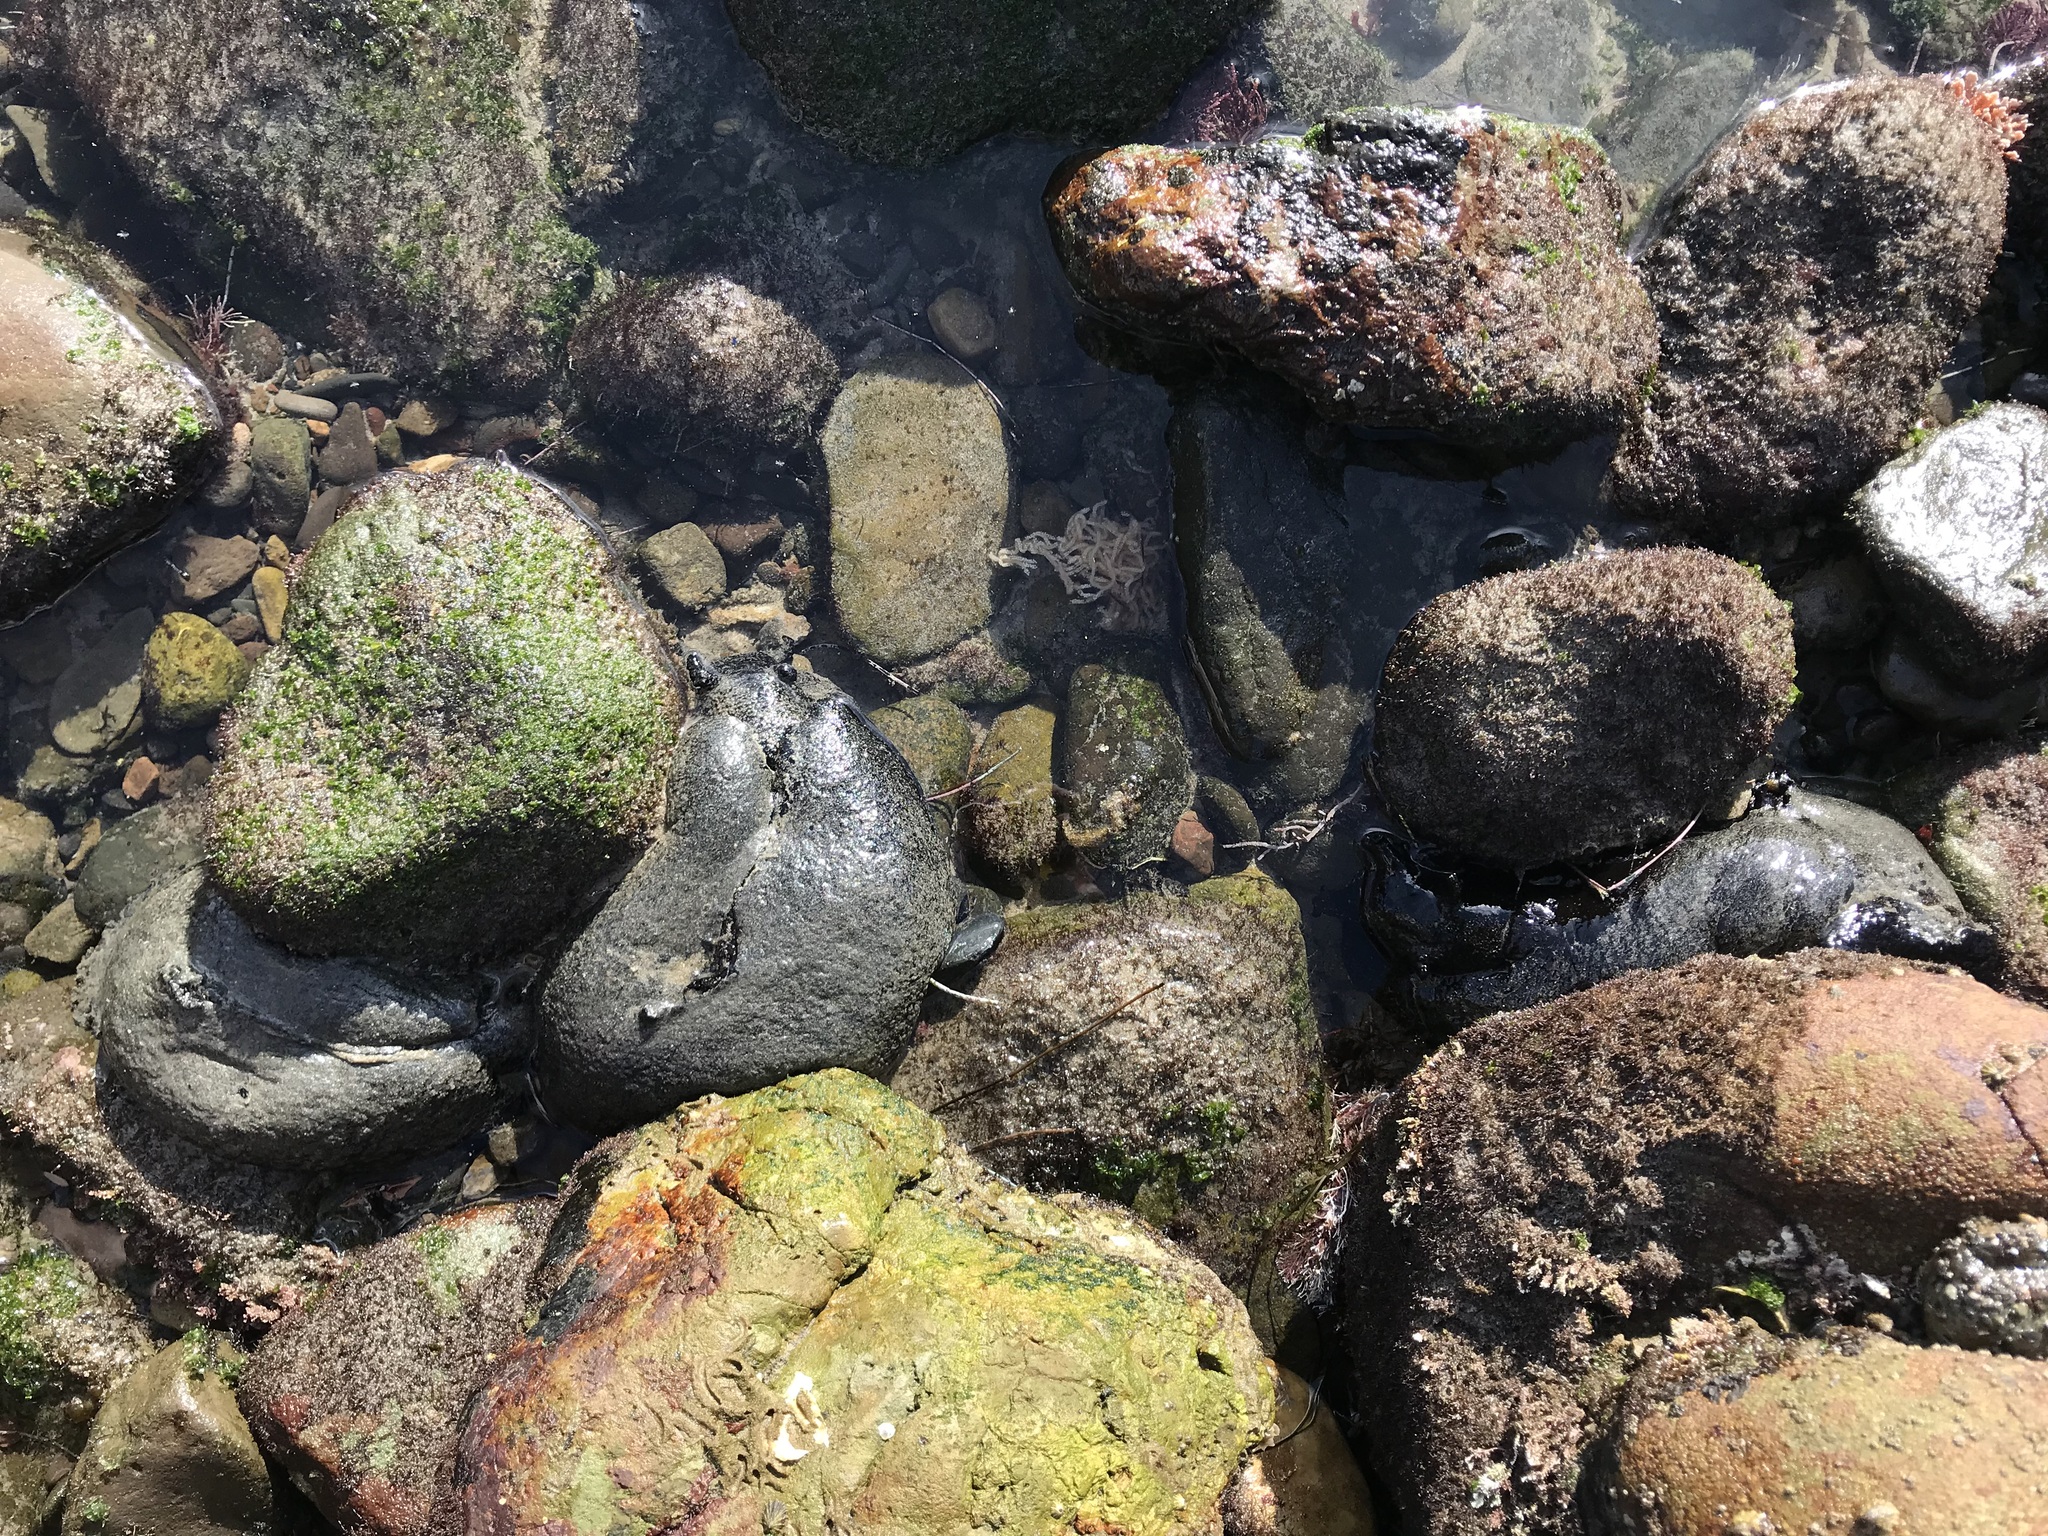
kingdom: Animalia
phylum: Mollusca
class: Gastropoda
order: Aplysiida
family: Aplysiidae
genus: Aplysia
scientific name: Aplysia vaccaria
